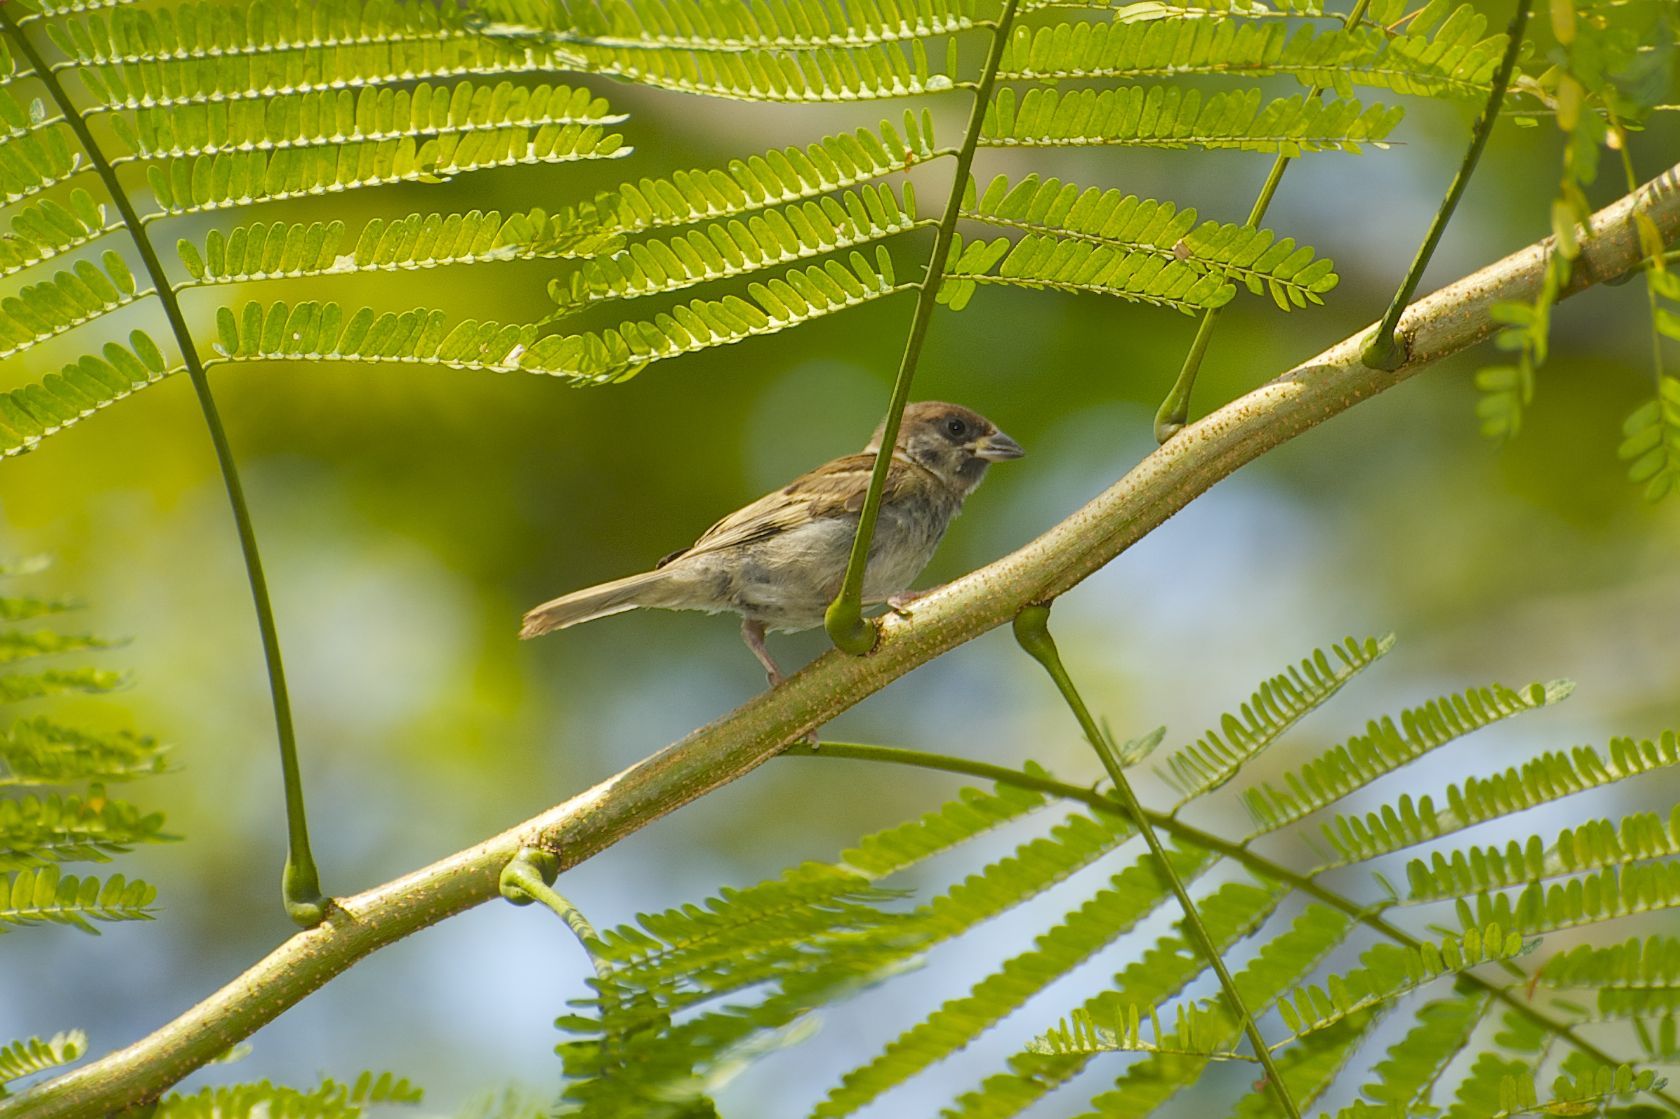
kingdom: Animalia
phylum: Chordata
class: Aves
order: Passeriformes
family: Passeridae
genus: Passer
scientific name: Passer montanus
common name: Eurasian tree sparrow
